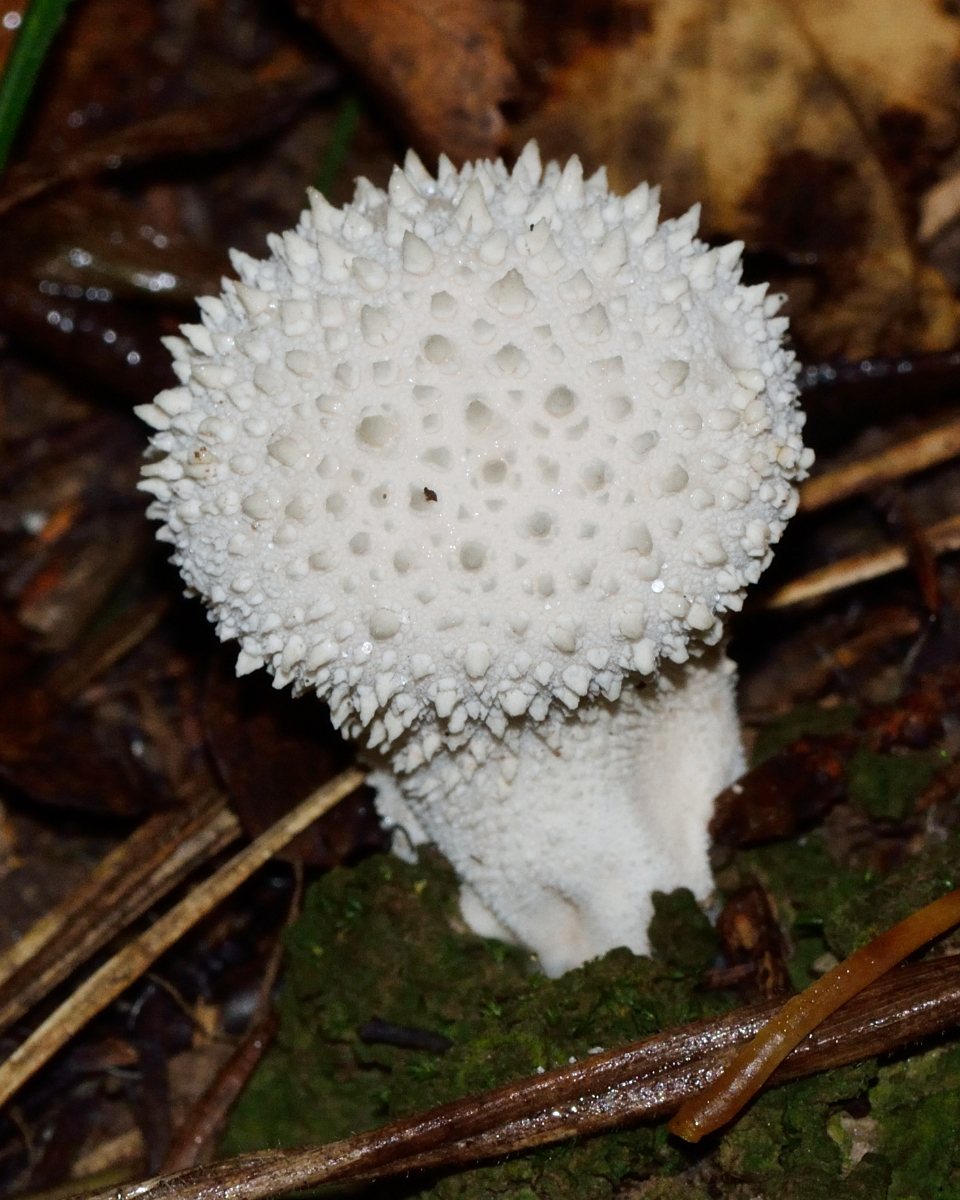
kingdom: Fungi
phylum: Basidiomycota
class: Agaricomycetes
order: Agaricales
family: Lycoperdaceae
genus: Lycoperdon
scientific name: Lycoperdon perlatum
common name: Common puffball
